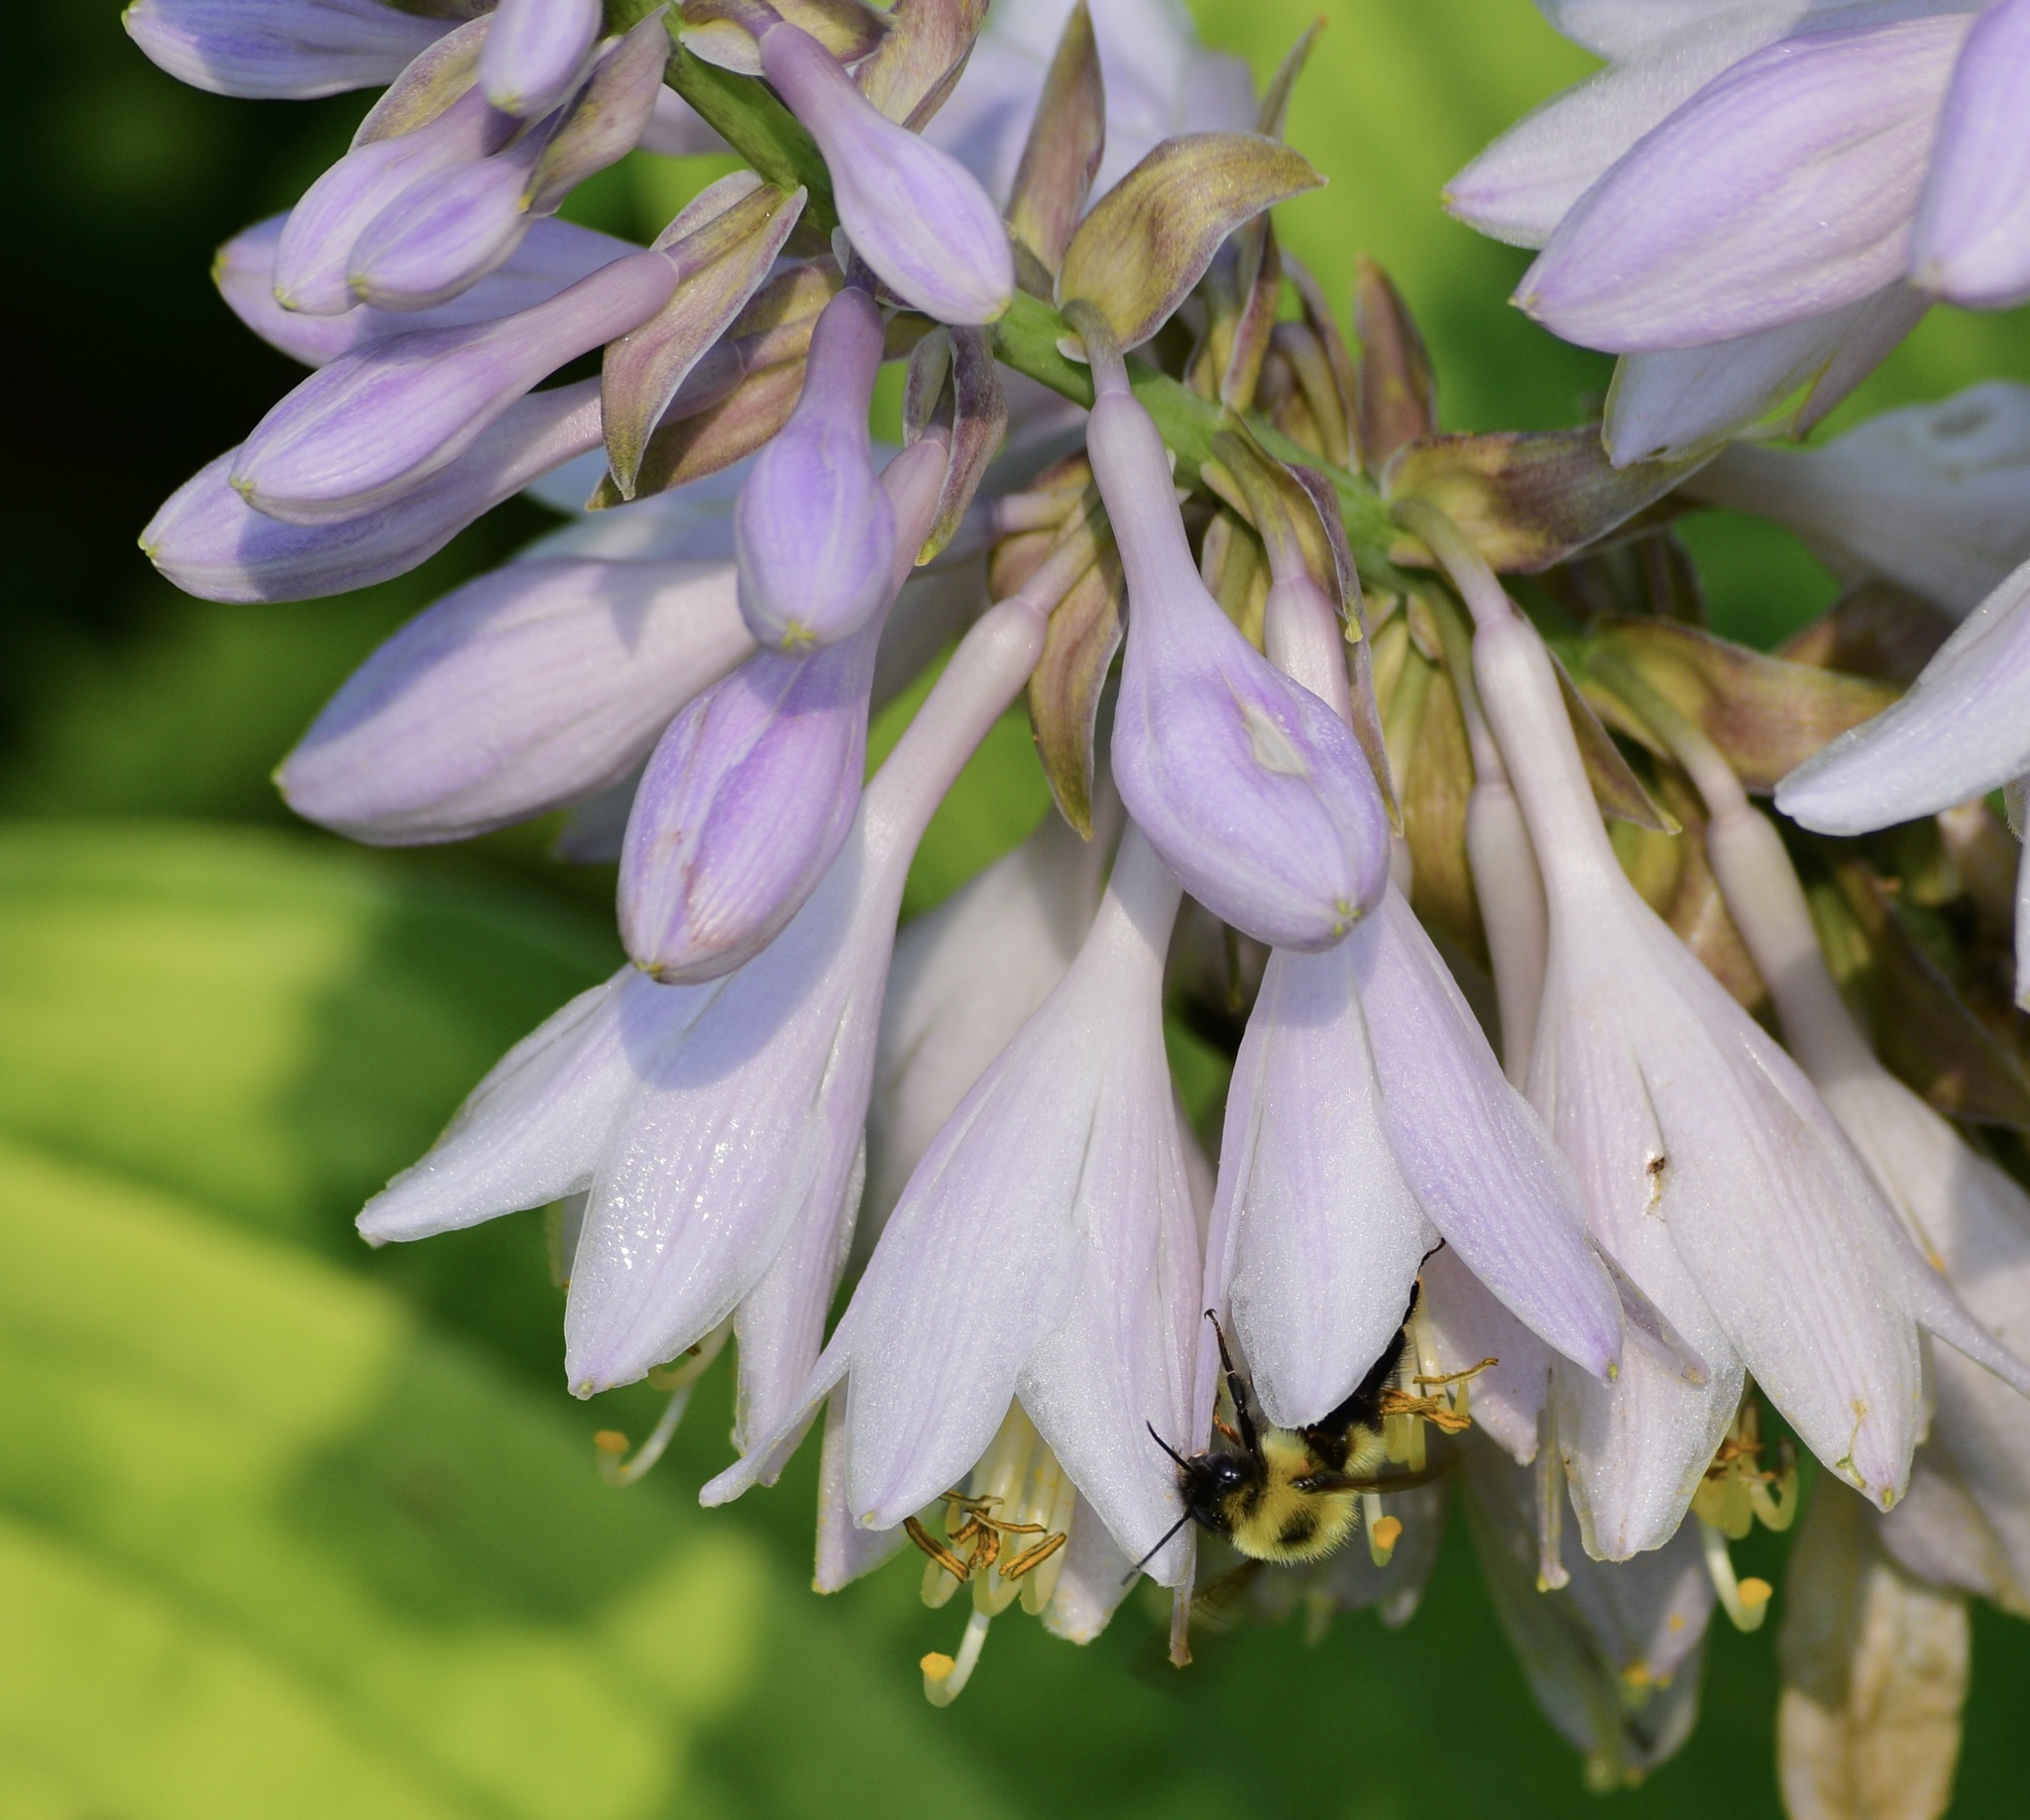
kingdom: Animalia
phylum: Arthropoda
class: Insecta
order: Hymenoptera
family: Apidae
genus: Bombus
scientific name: Bombus bimaculatus
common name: Two-spotted bumble bee
